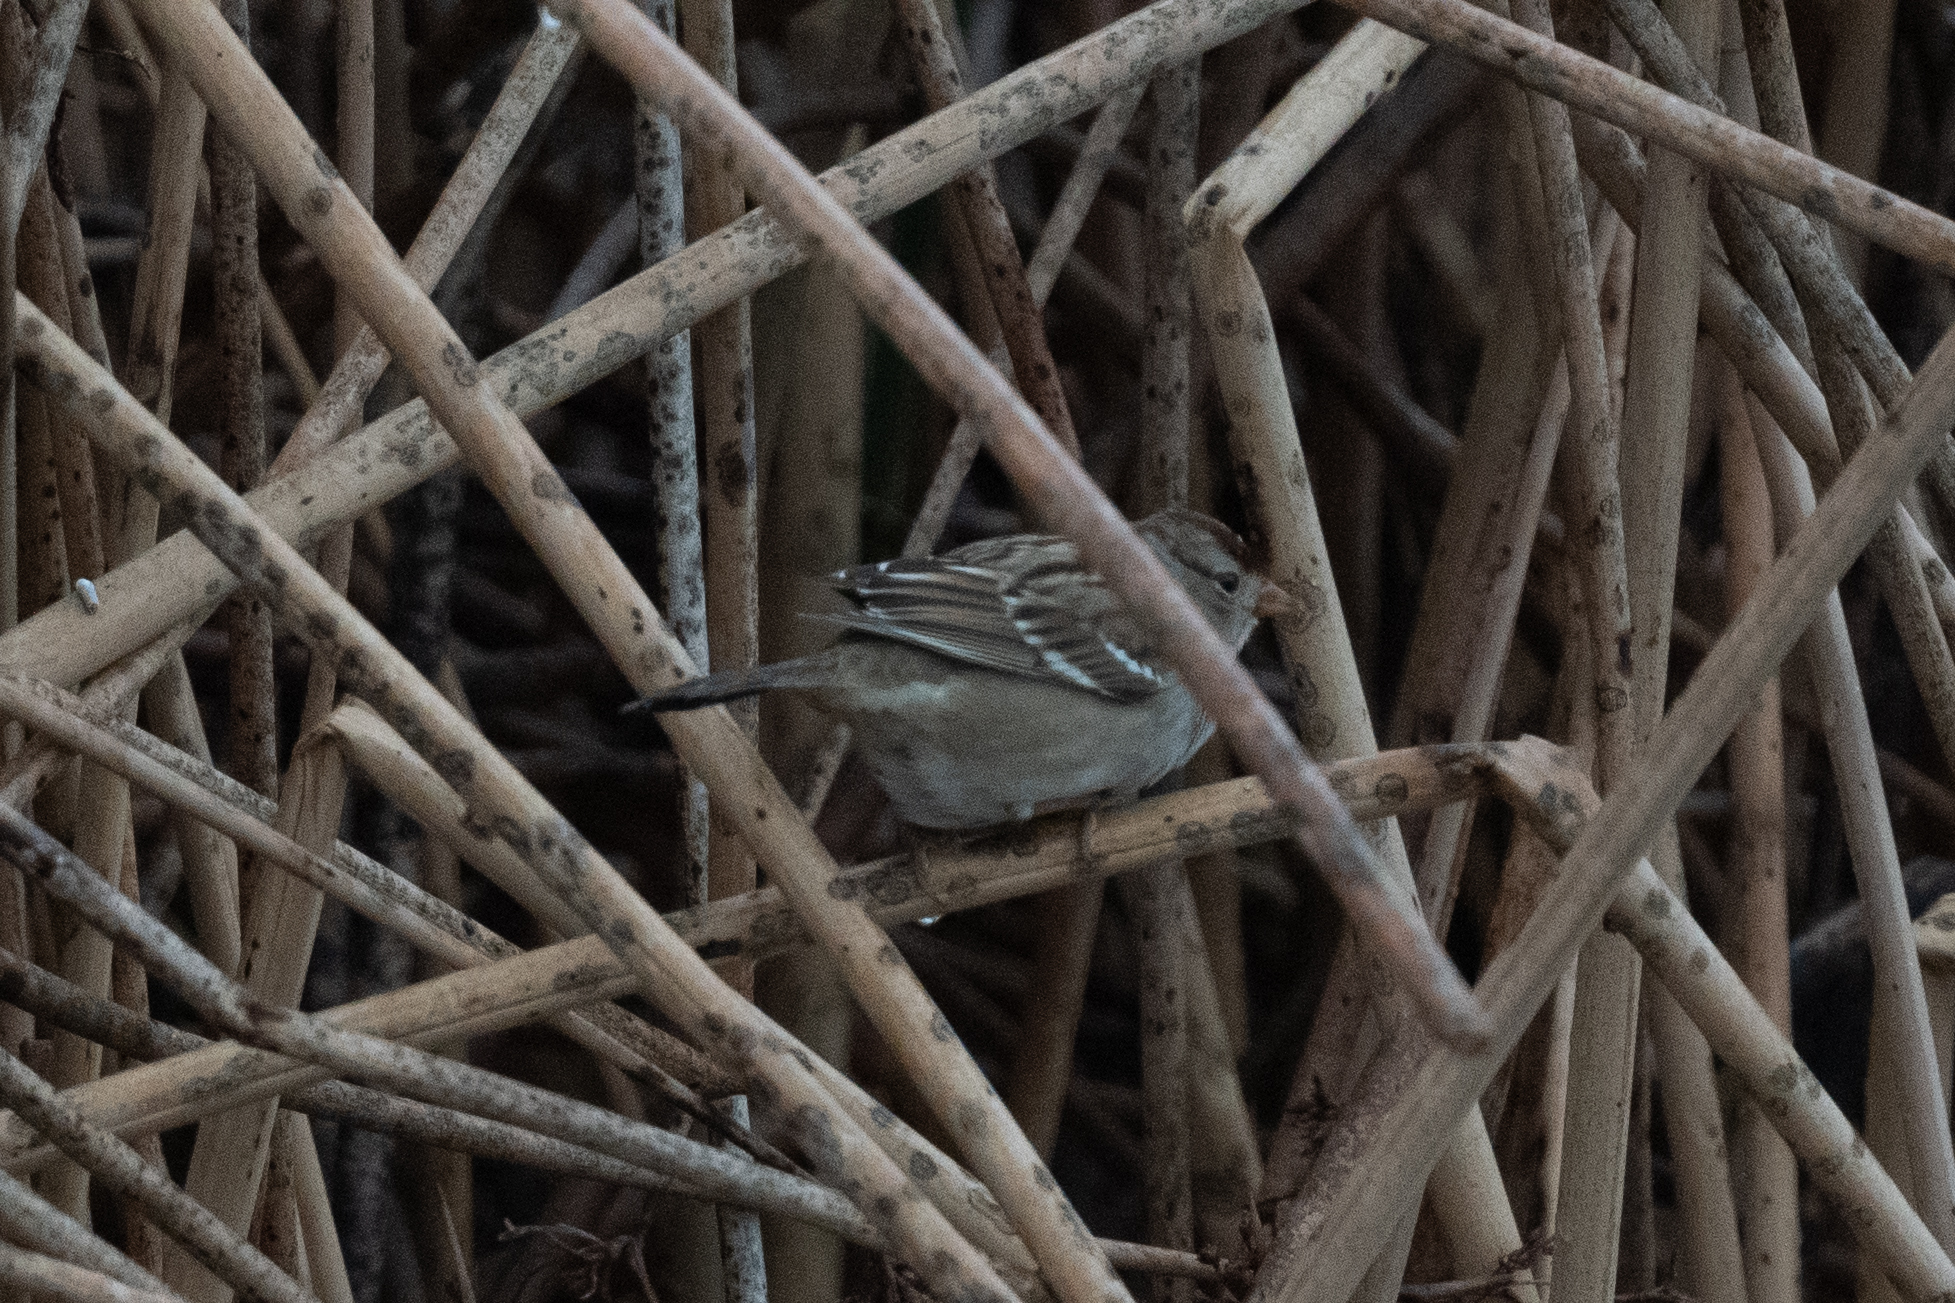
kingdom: Animalia
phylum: Chordata
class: Aves
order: Passeriformes
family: Passerellidae
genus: Zonotrichia
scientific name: Zonotrichia leucophrys
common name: White-crowned sparrow
